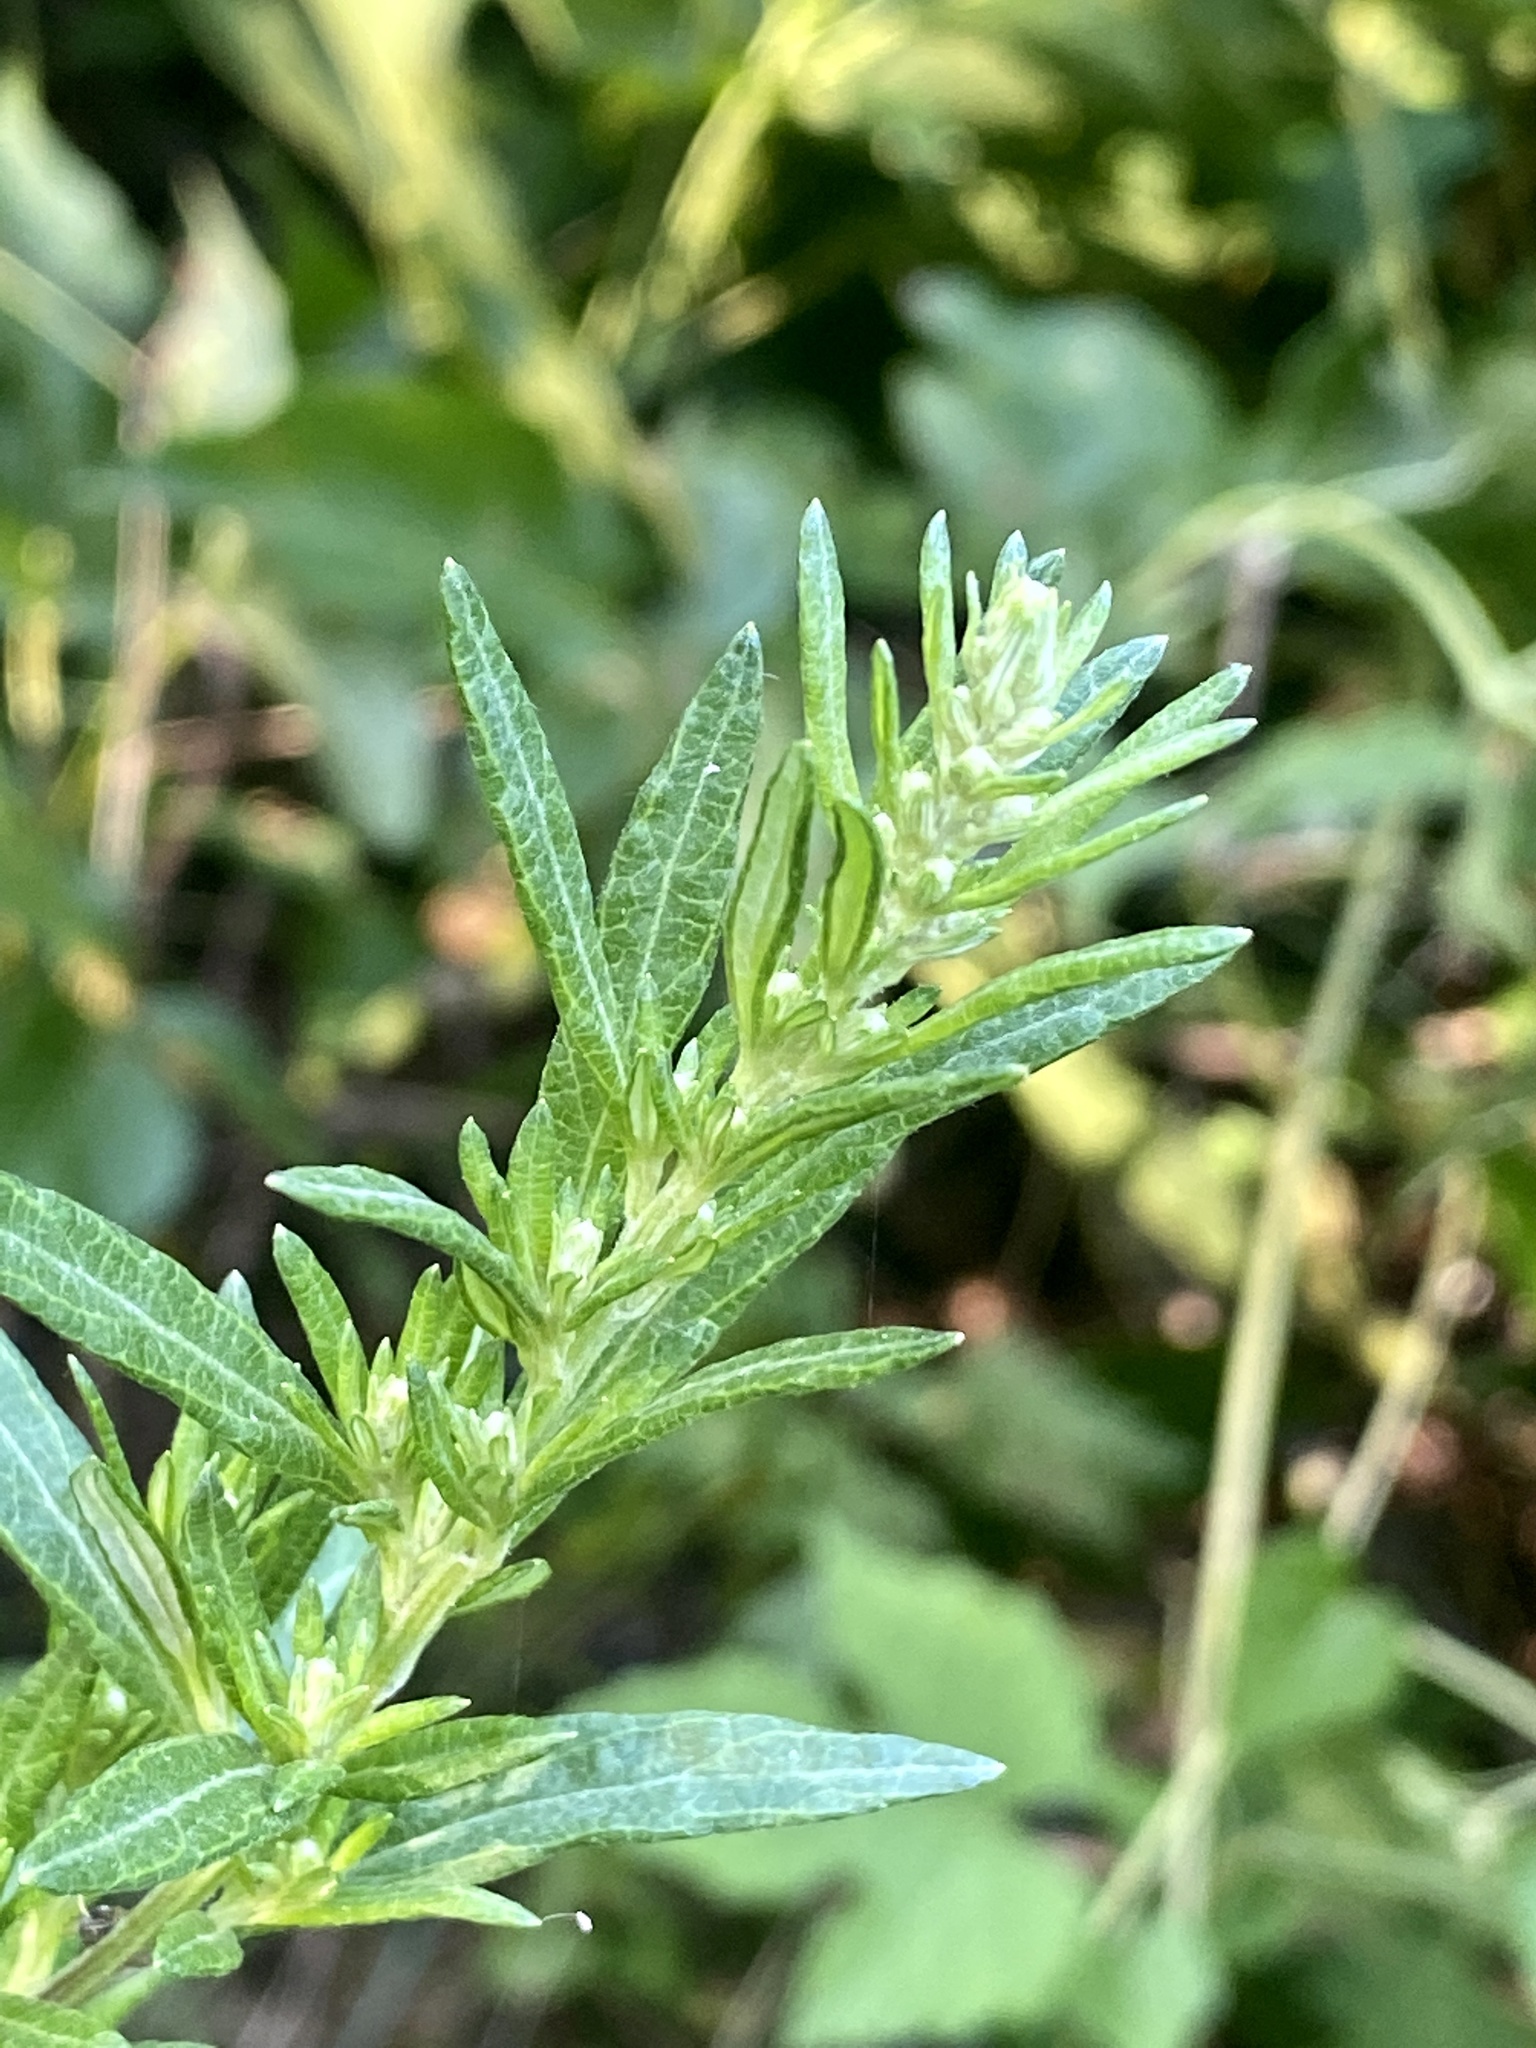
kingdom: Plantae
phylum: Tracheophyta
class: Magnoliopsida
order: Asterales
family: Asteraceae
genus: Artemisia
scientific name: Artemisia vulgaris
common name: Mugwort
